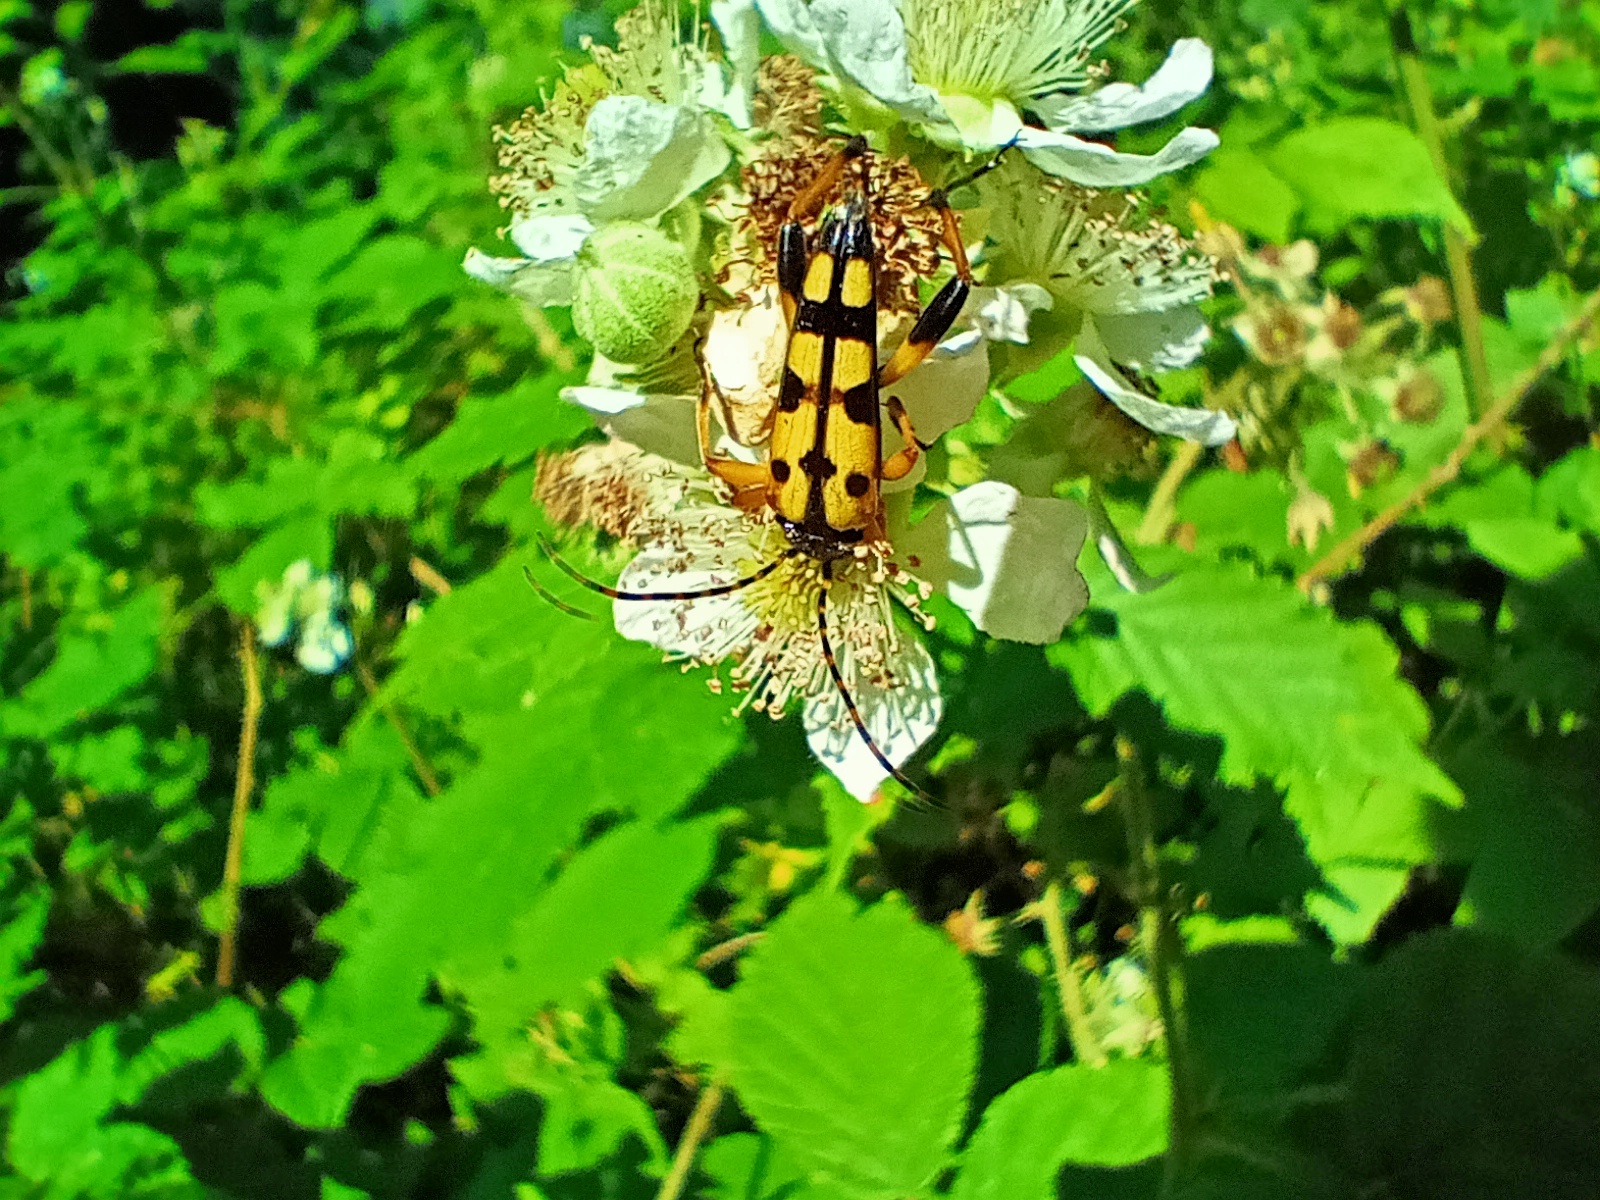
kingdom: Animalia
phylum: Arthropoda
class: Insecta
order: Coleoptera
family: Cerambycidae
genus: Rutpela
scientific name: Rutpela maculata
